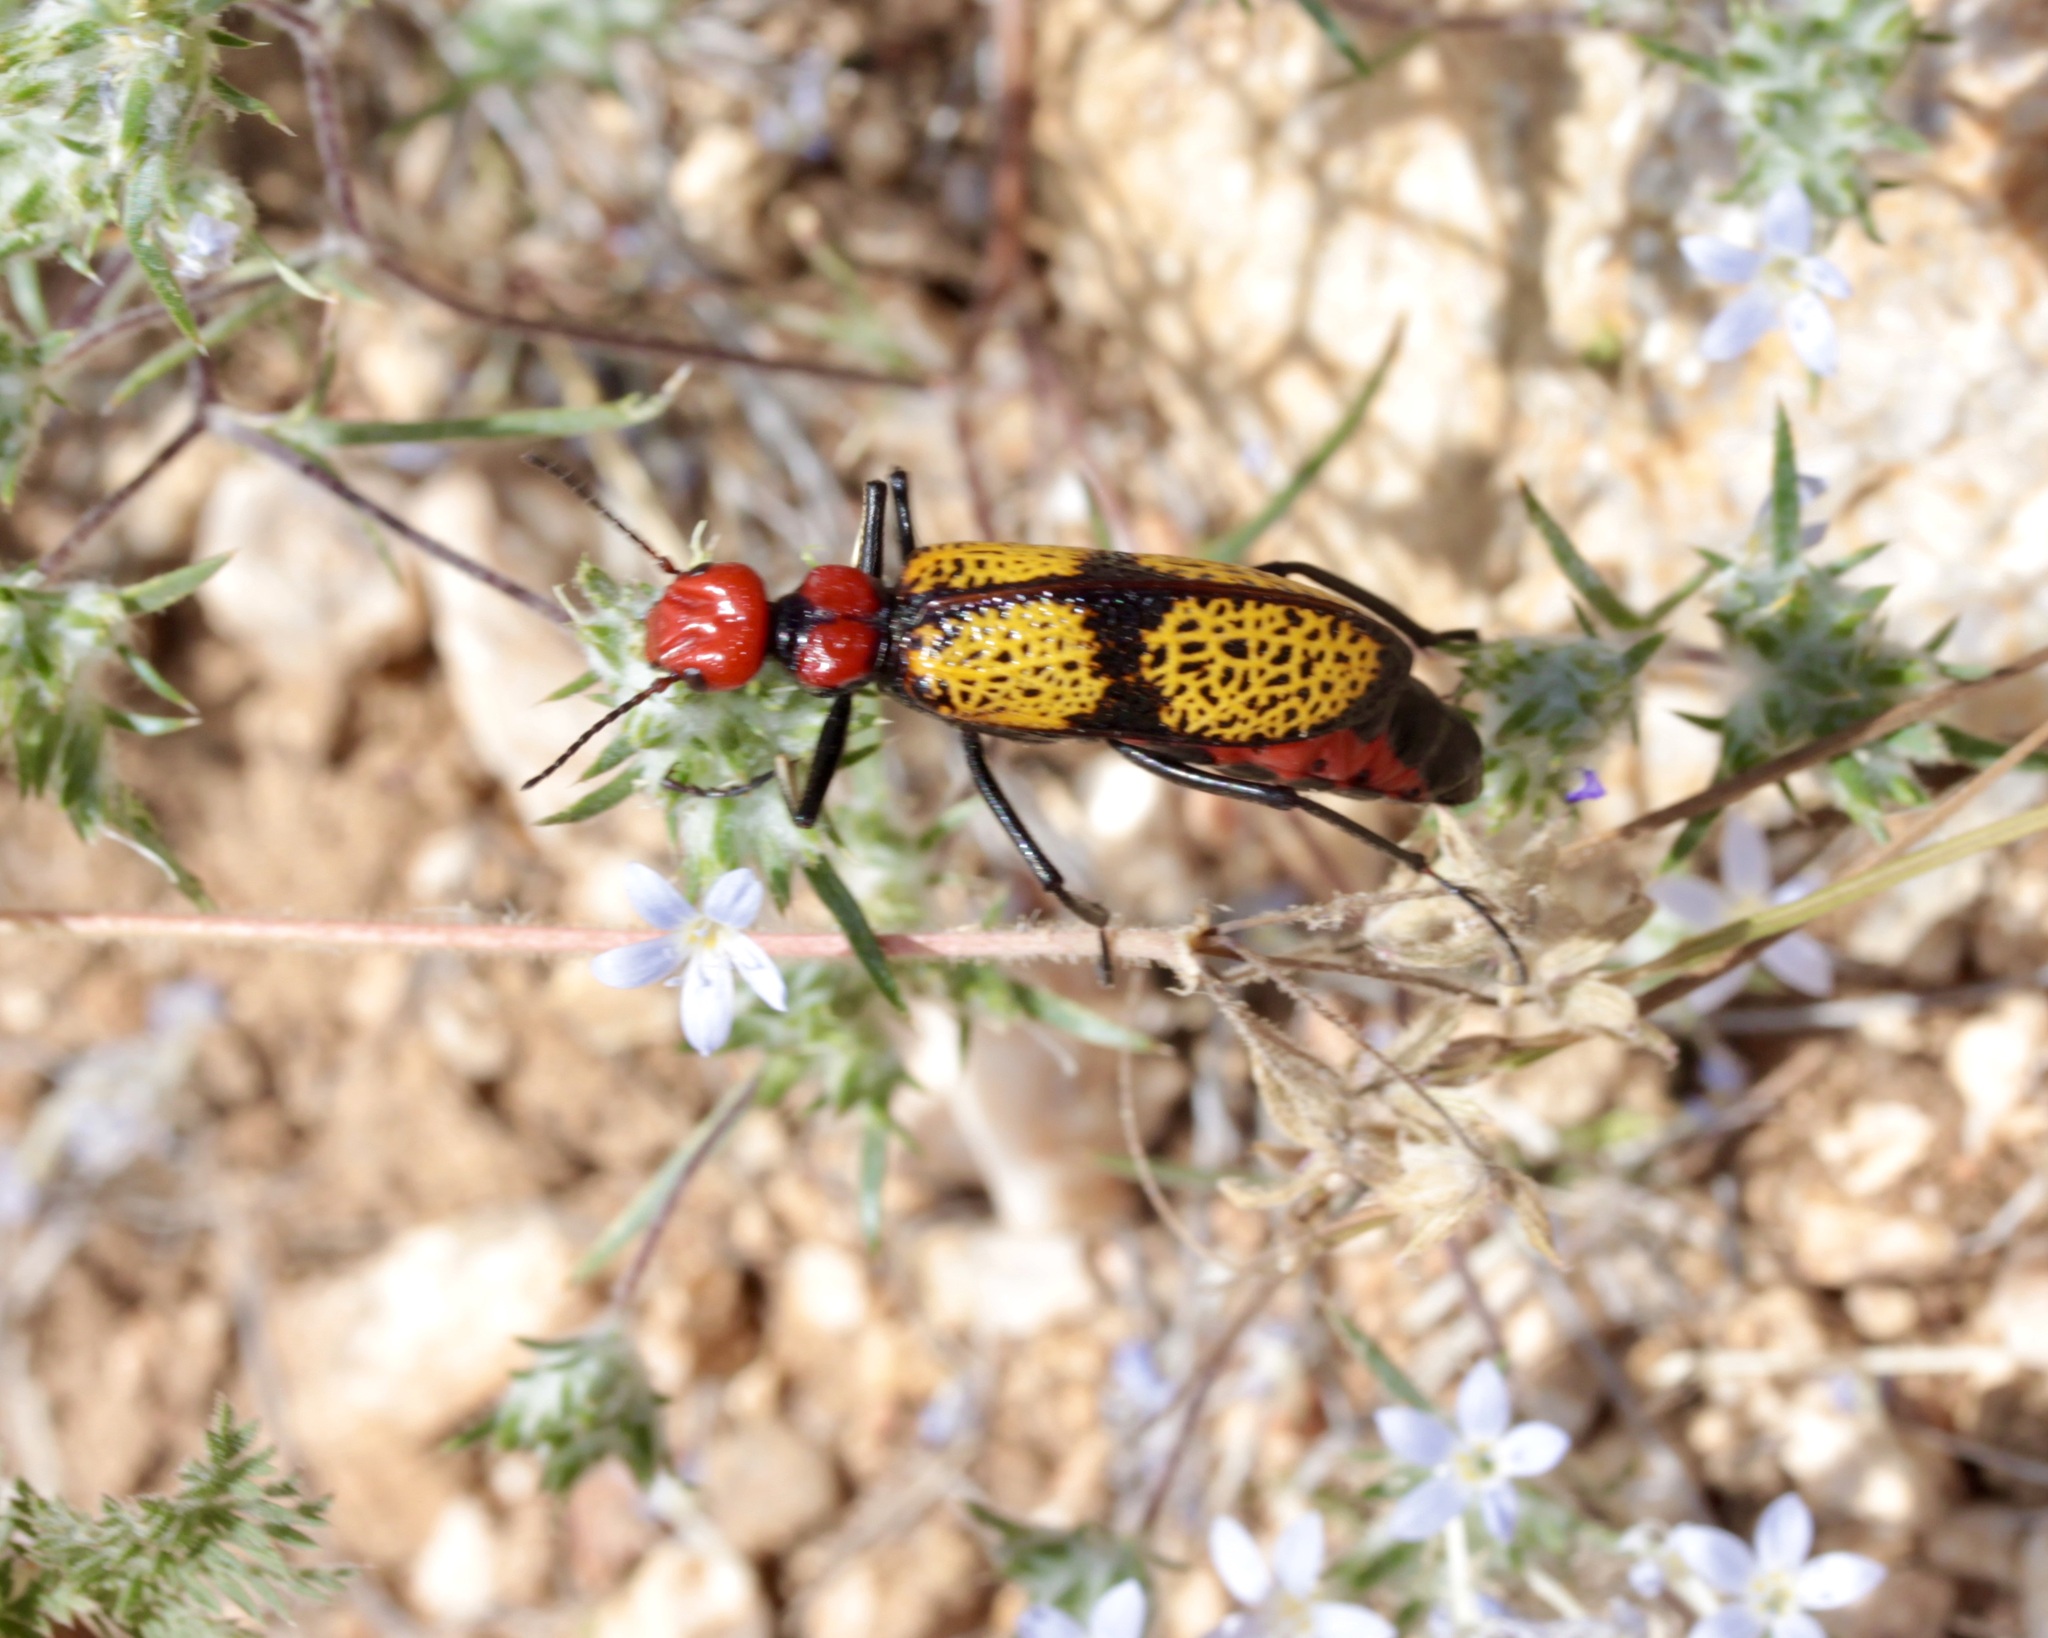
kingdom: Animalia
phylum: Arthropoda
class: Insecta
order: Coleoptera
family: Meloidae
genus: Tegrodera
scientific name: Tegrodera aloga
